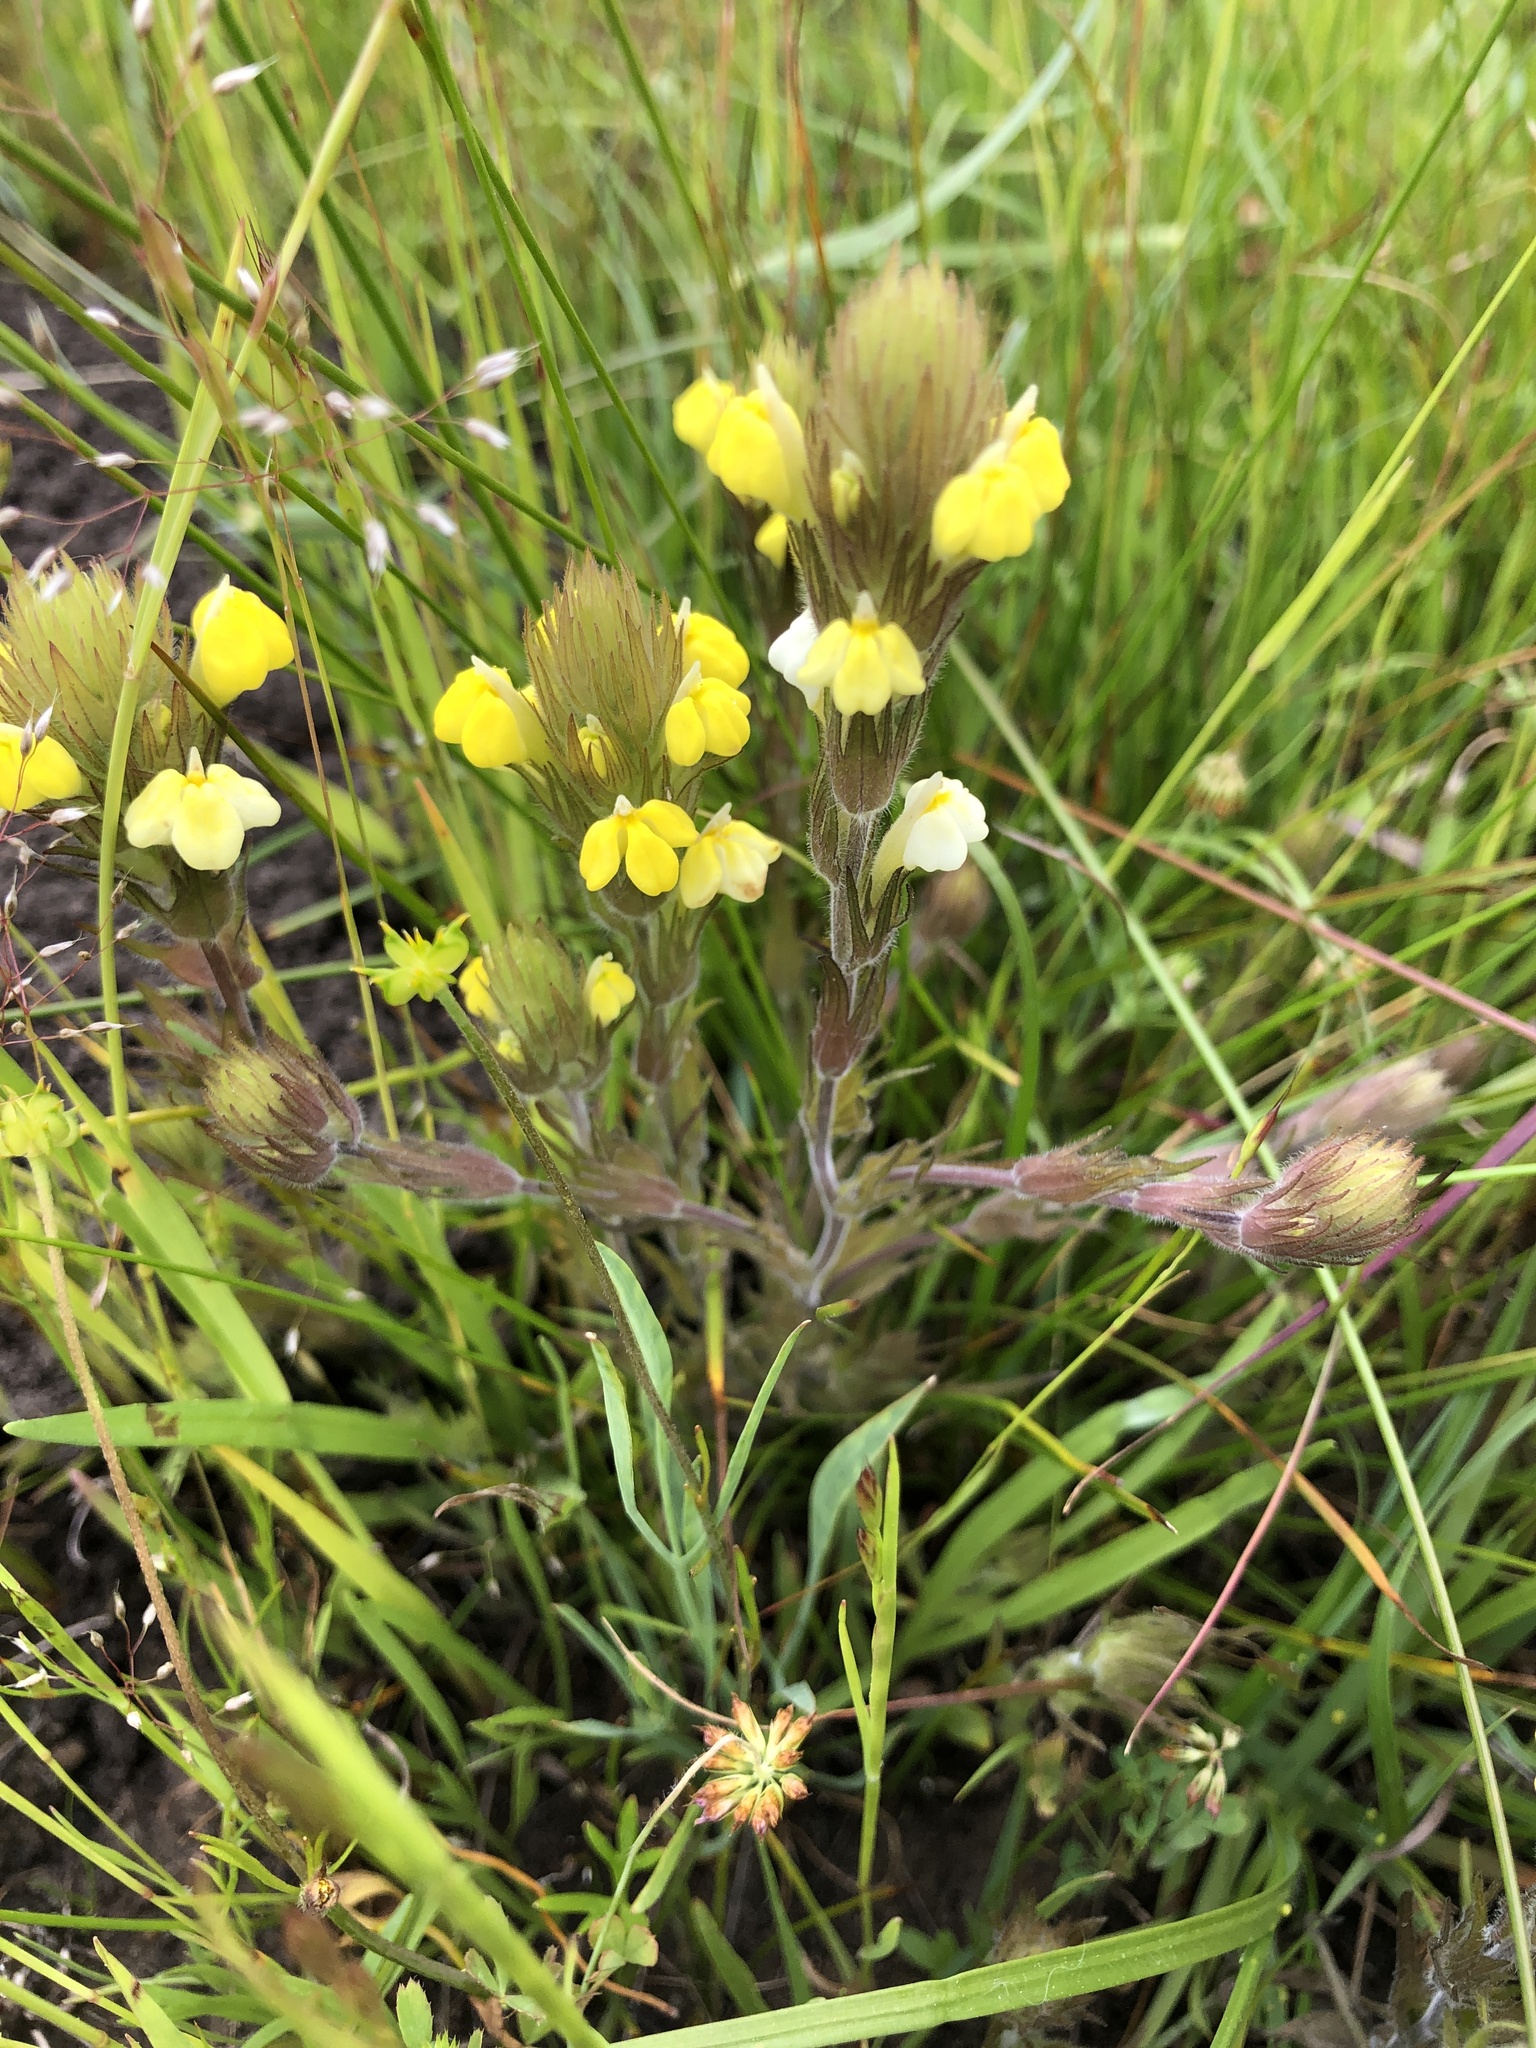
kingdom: Plantae
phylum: Tracheophyta
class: Magnoliopsida
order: Lamiales
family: Orobanchaceae
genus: Castilleja
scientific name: Castilleja rubicundula
